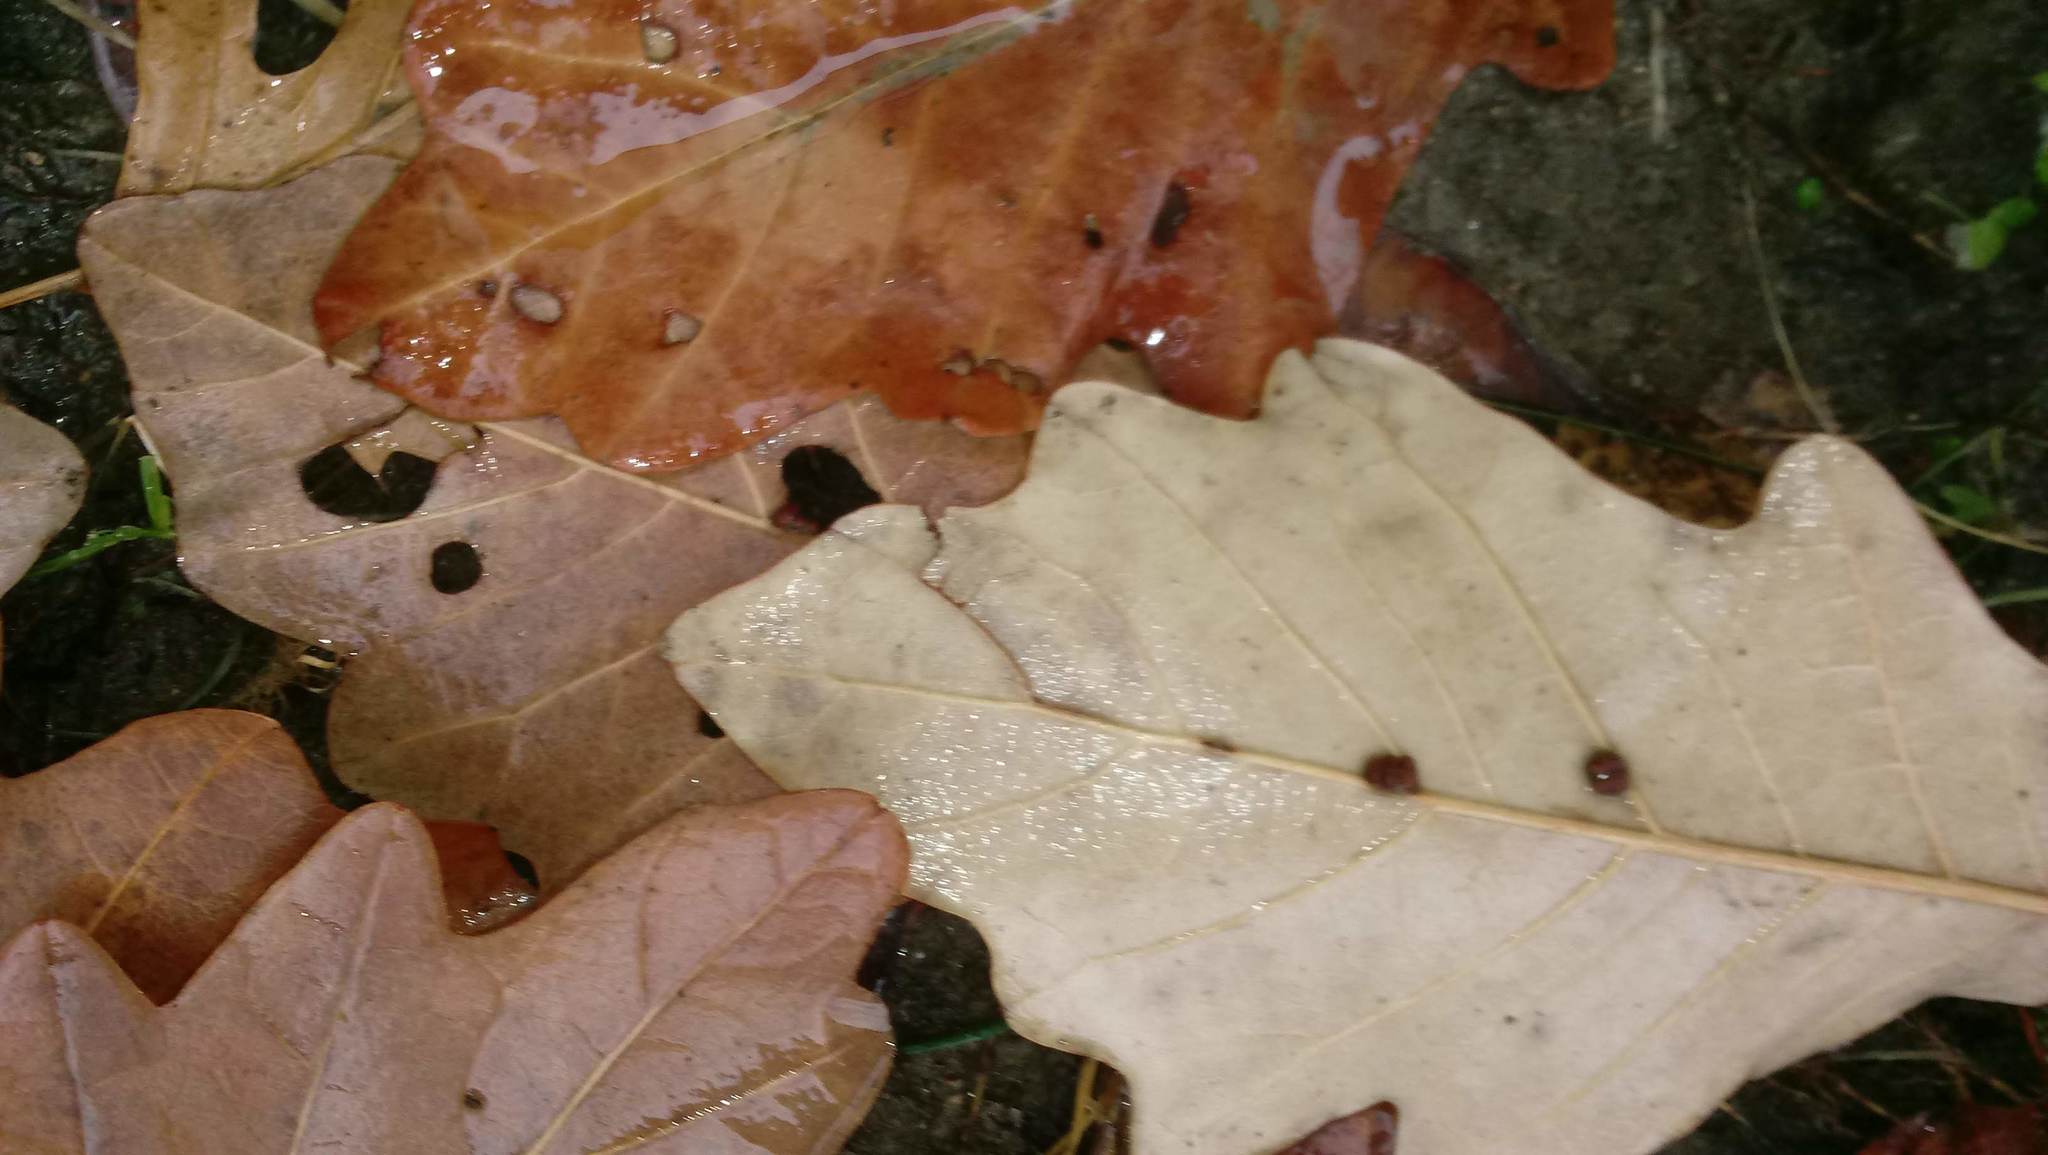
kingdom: Animalia
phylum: Arthropoda
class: Insecta
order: Hymenoptera
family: Cynipidae
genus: Andricus
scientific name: Andricus Druon ignotum
